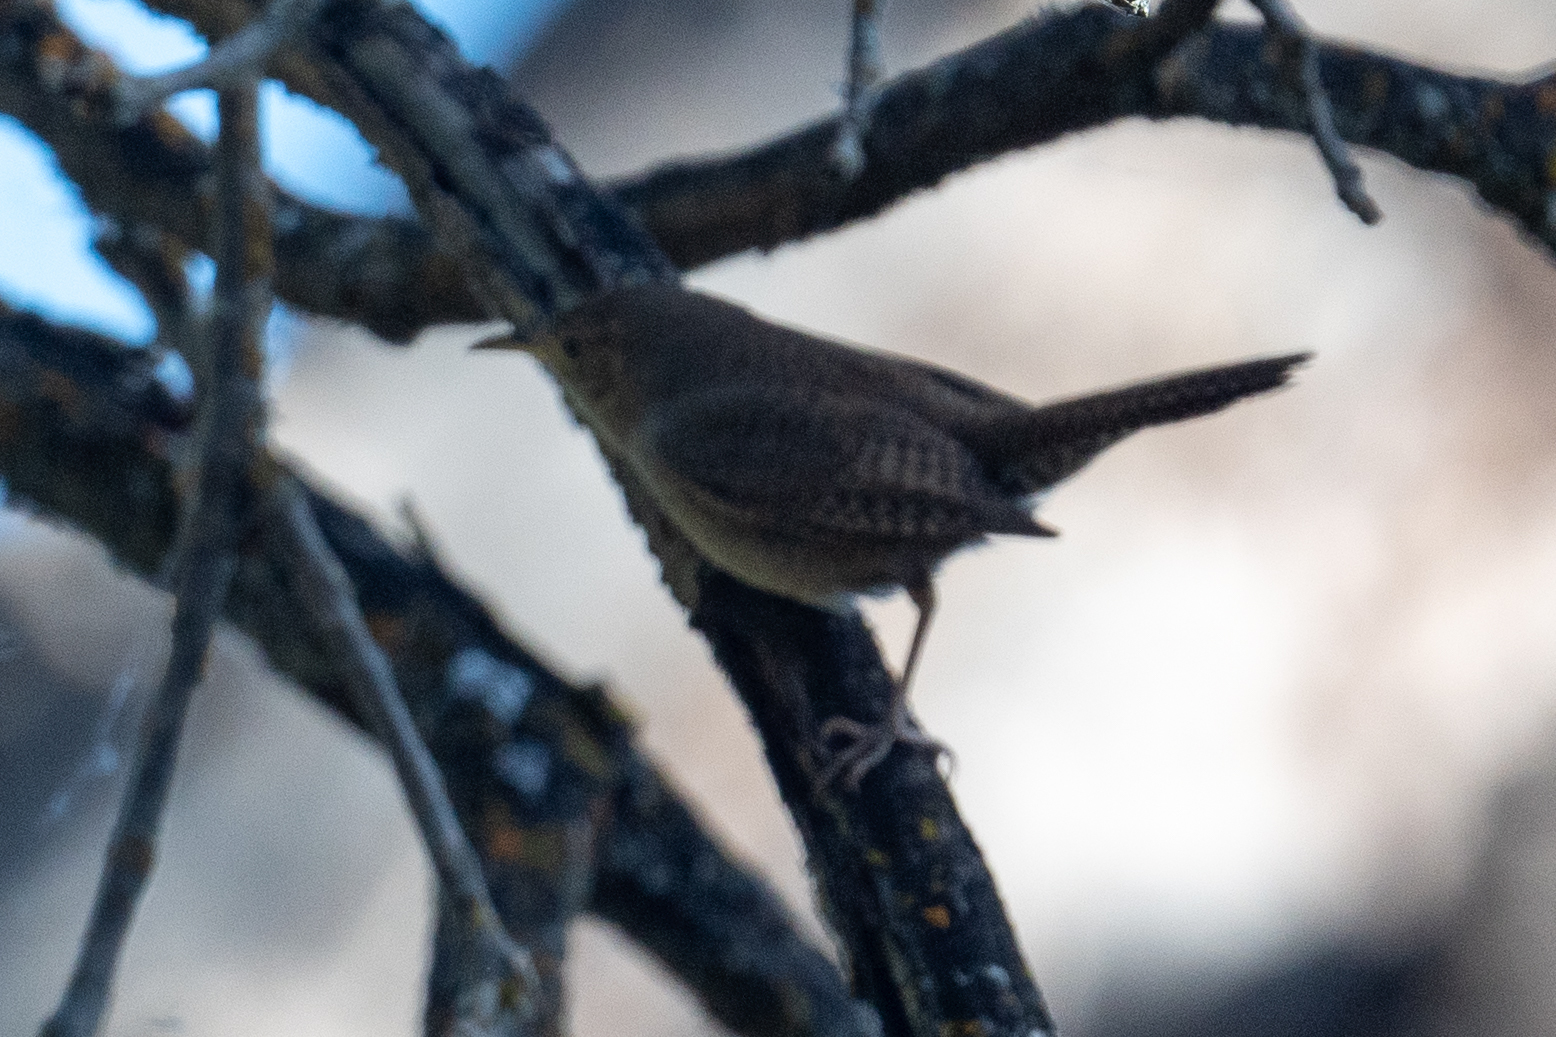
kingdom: Animalia
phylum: Chordata
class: Aves
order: Passeriformes
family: Troglodytidae
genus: Troglodytes
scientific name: Troglodytes aedon
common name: House wren
